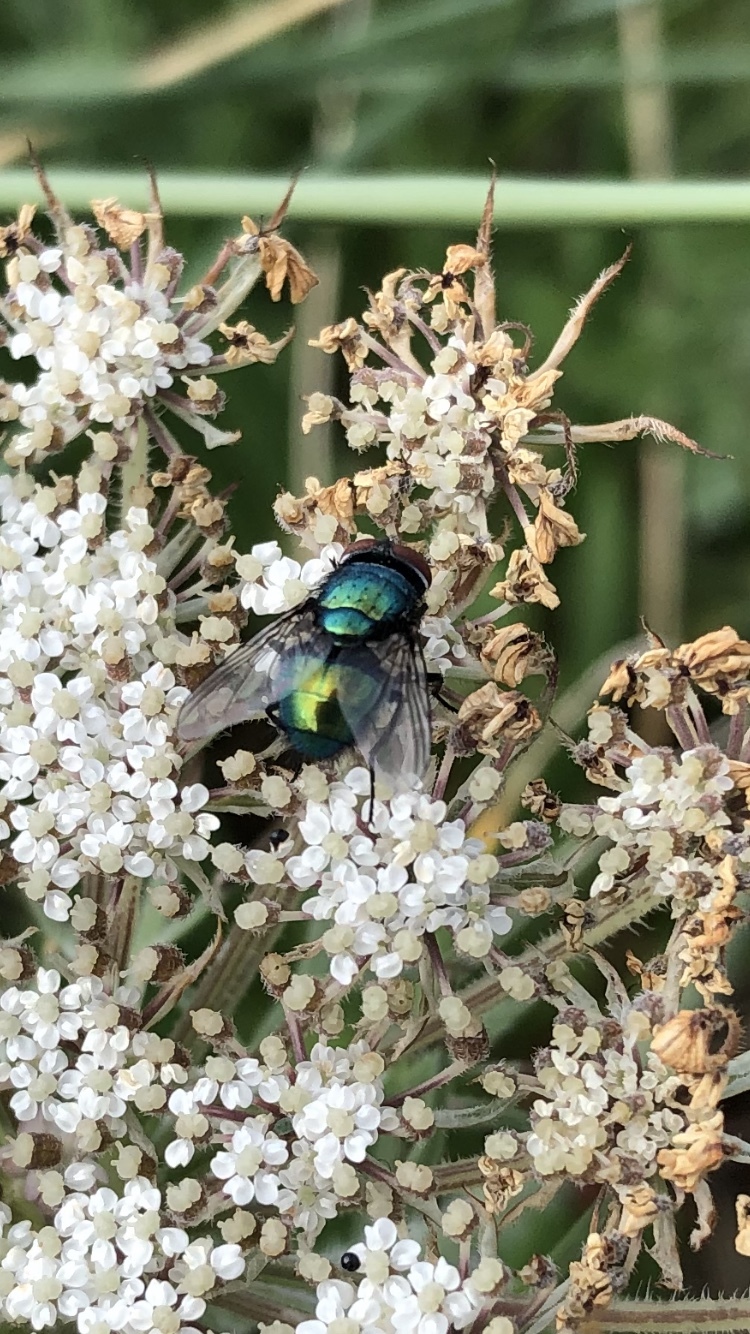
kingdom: Animalia
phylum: Arthropoda
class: Insecta
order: Diptera
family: Calliphoridae
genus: Lucilia
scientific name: Lucilia sericata
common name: Blow fly
